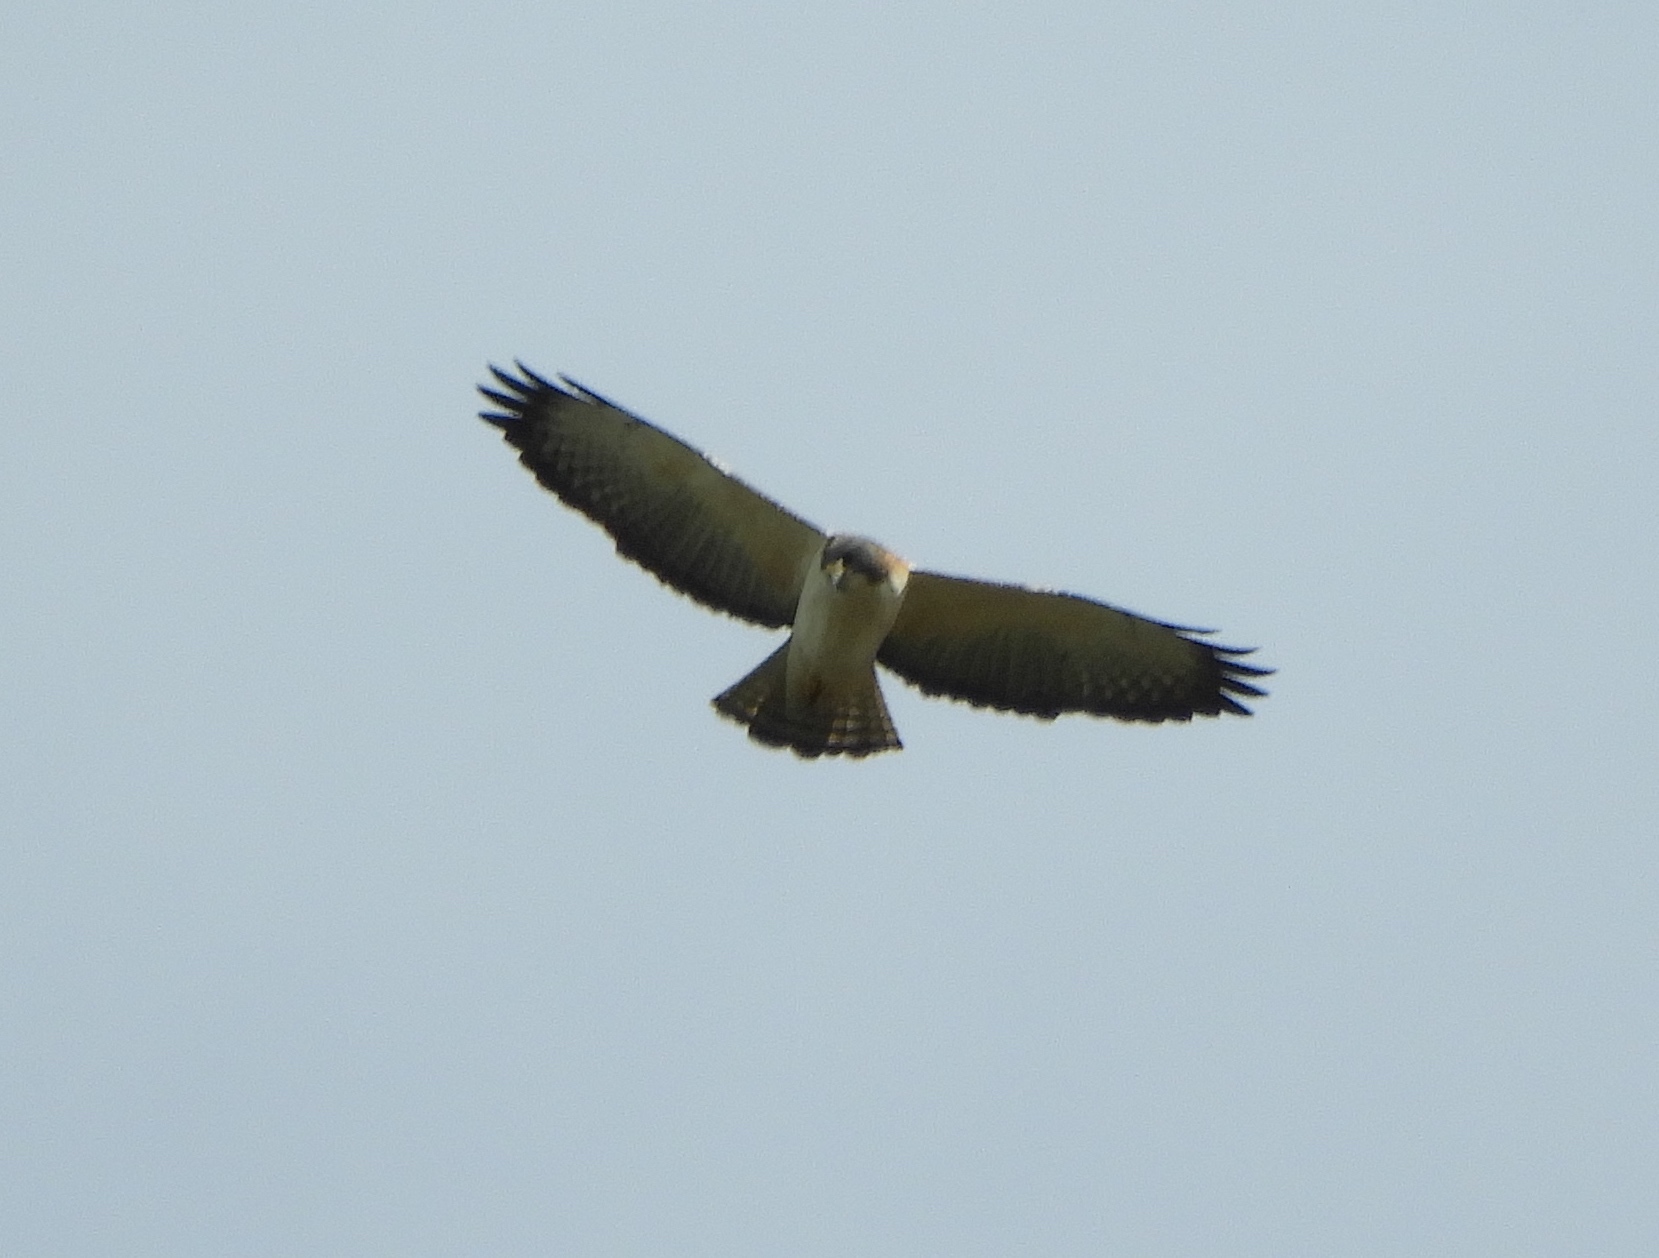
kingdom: Animalia
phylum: Chordata
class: Aves
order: Accipitriformes
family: Accipitridae
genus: Buteo
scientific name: Buteo brachyurus
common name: Short-tailed hawk
